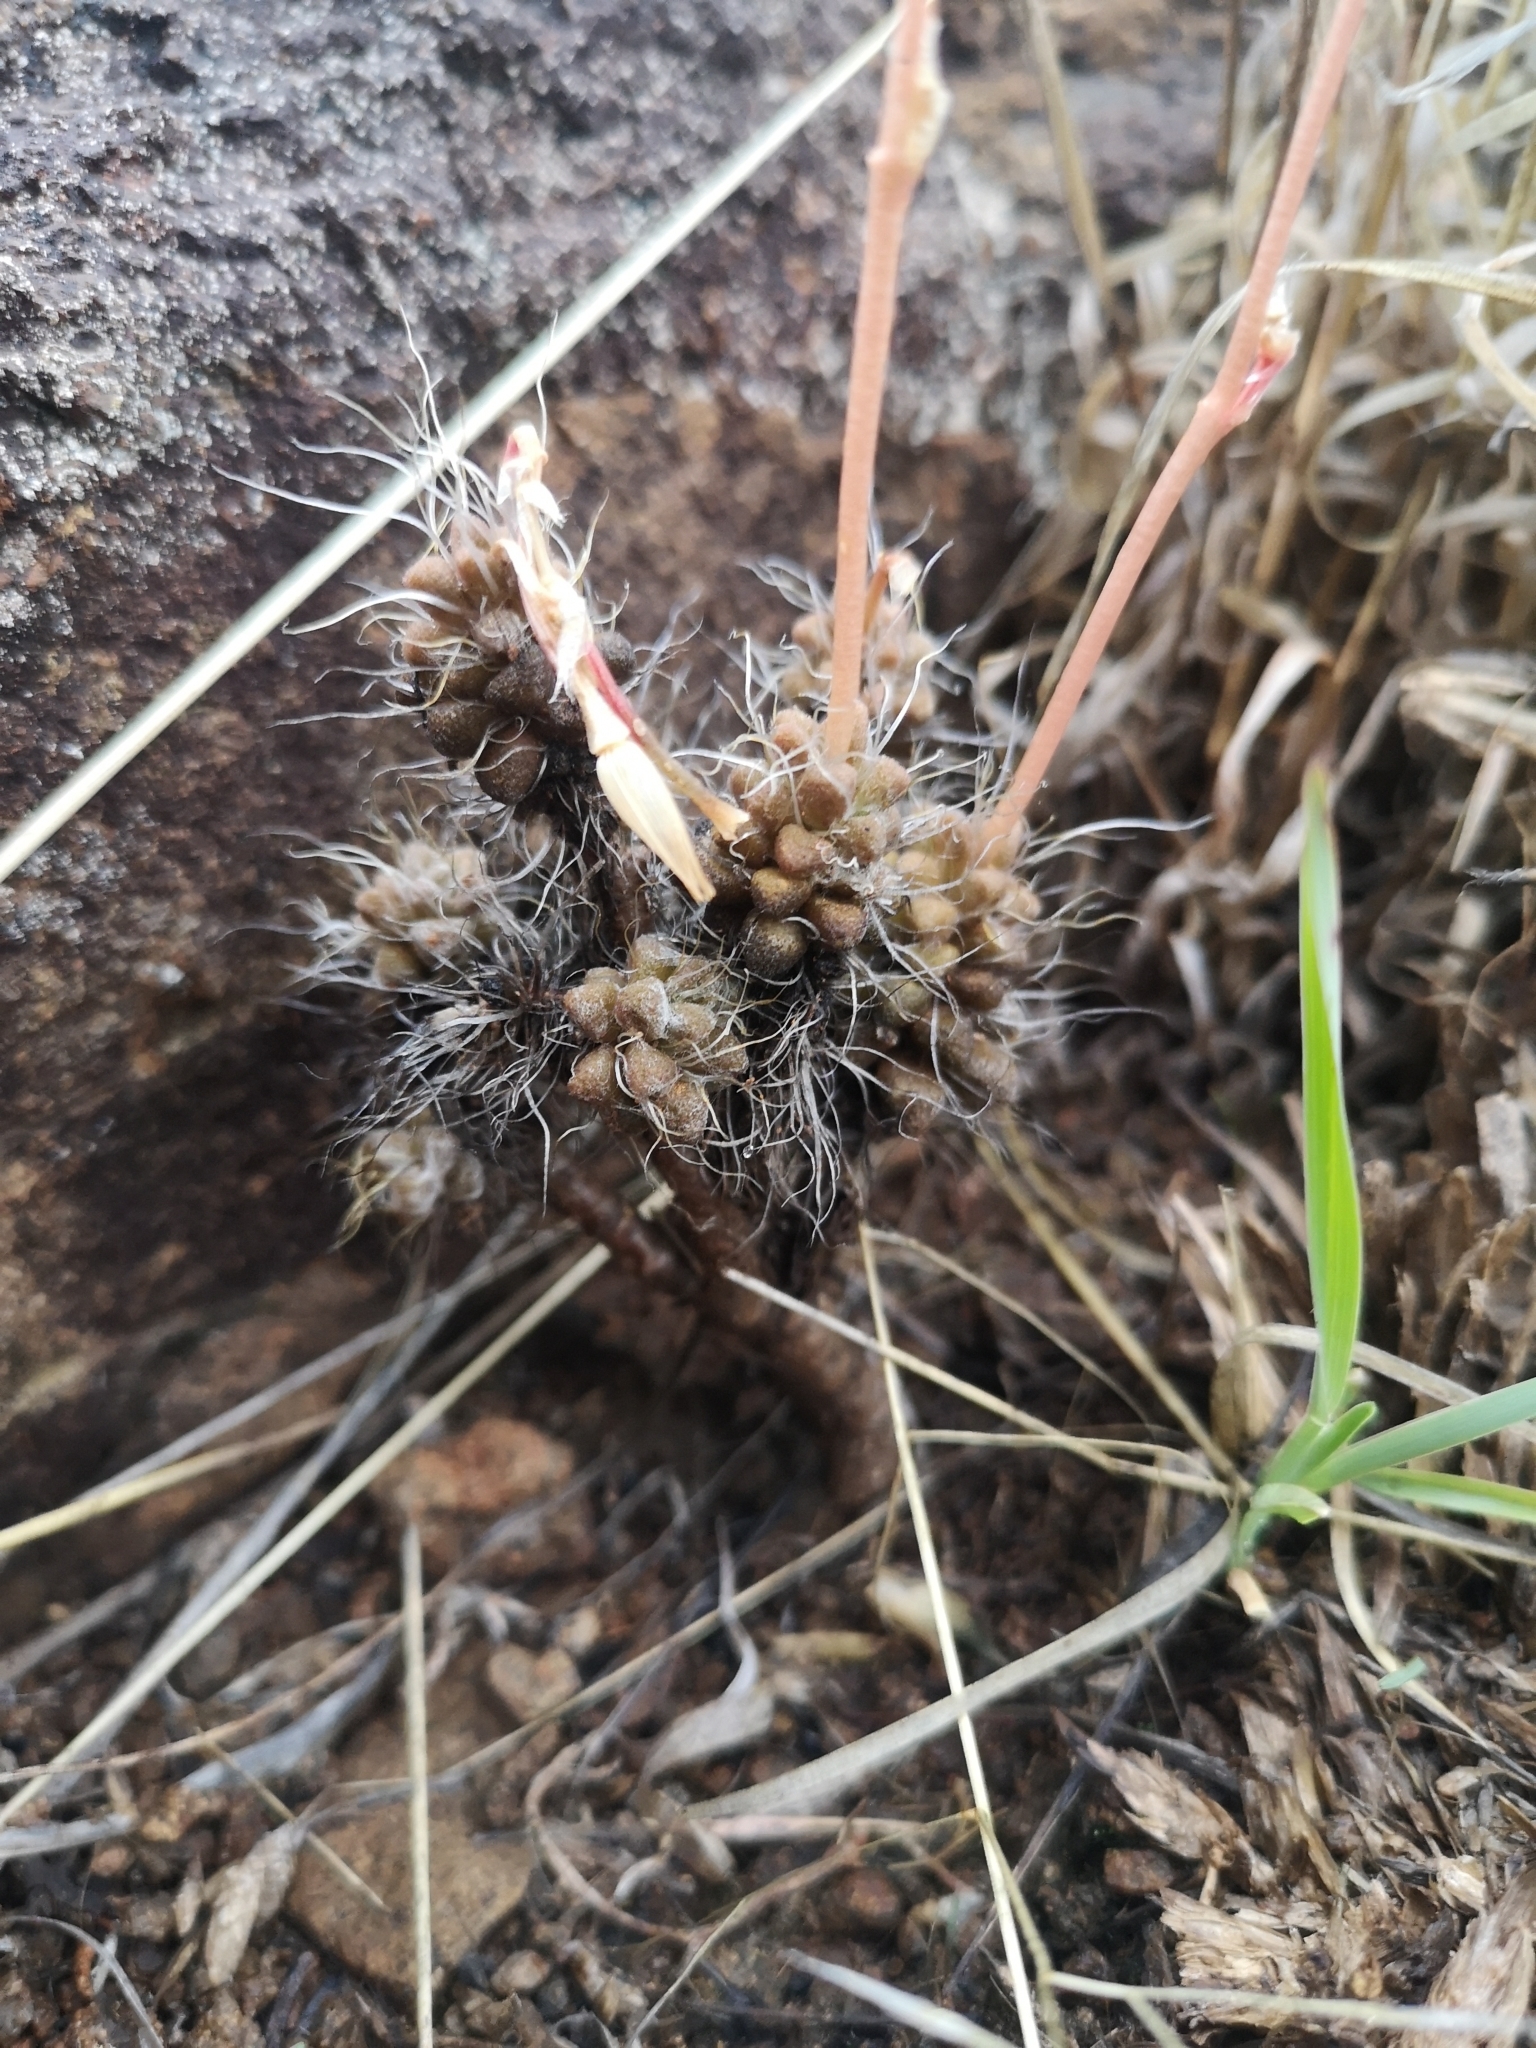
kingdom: Plantae
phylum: Tracheophyta
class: Magnoliopsida
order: Caryophyllales
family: Anacampserotaceae
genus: Anacampseros
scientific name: Anacampseros filamentosa
